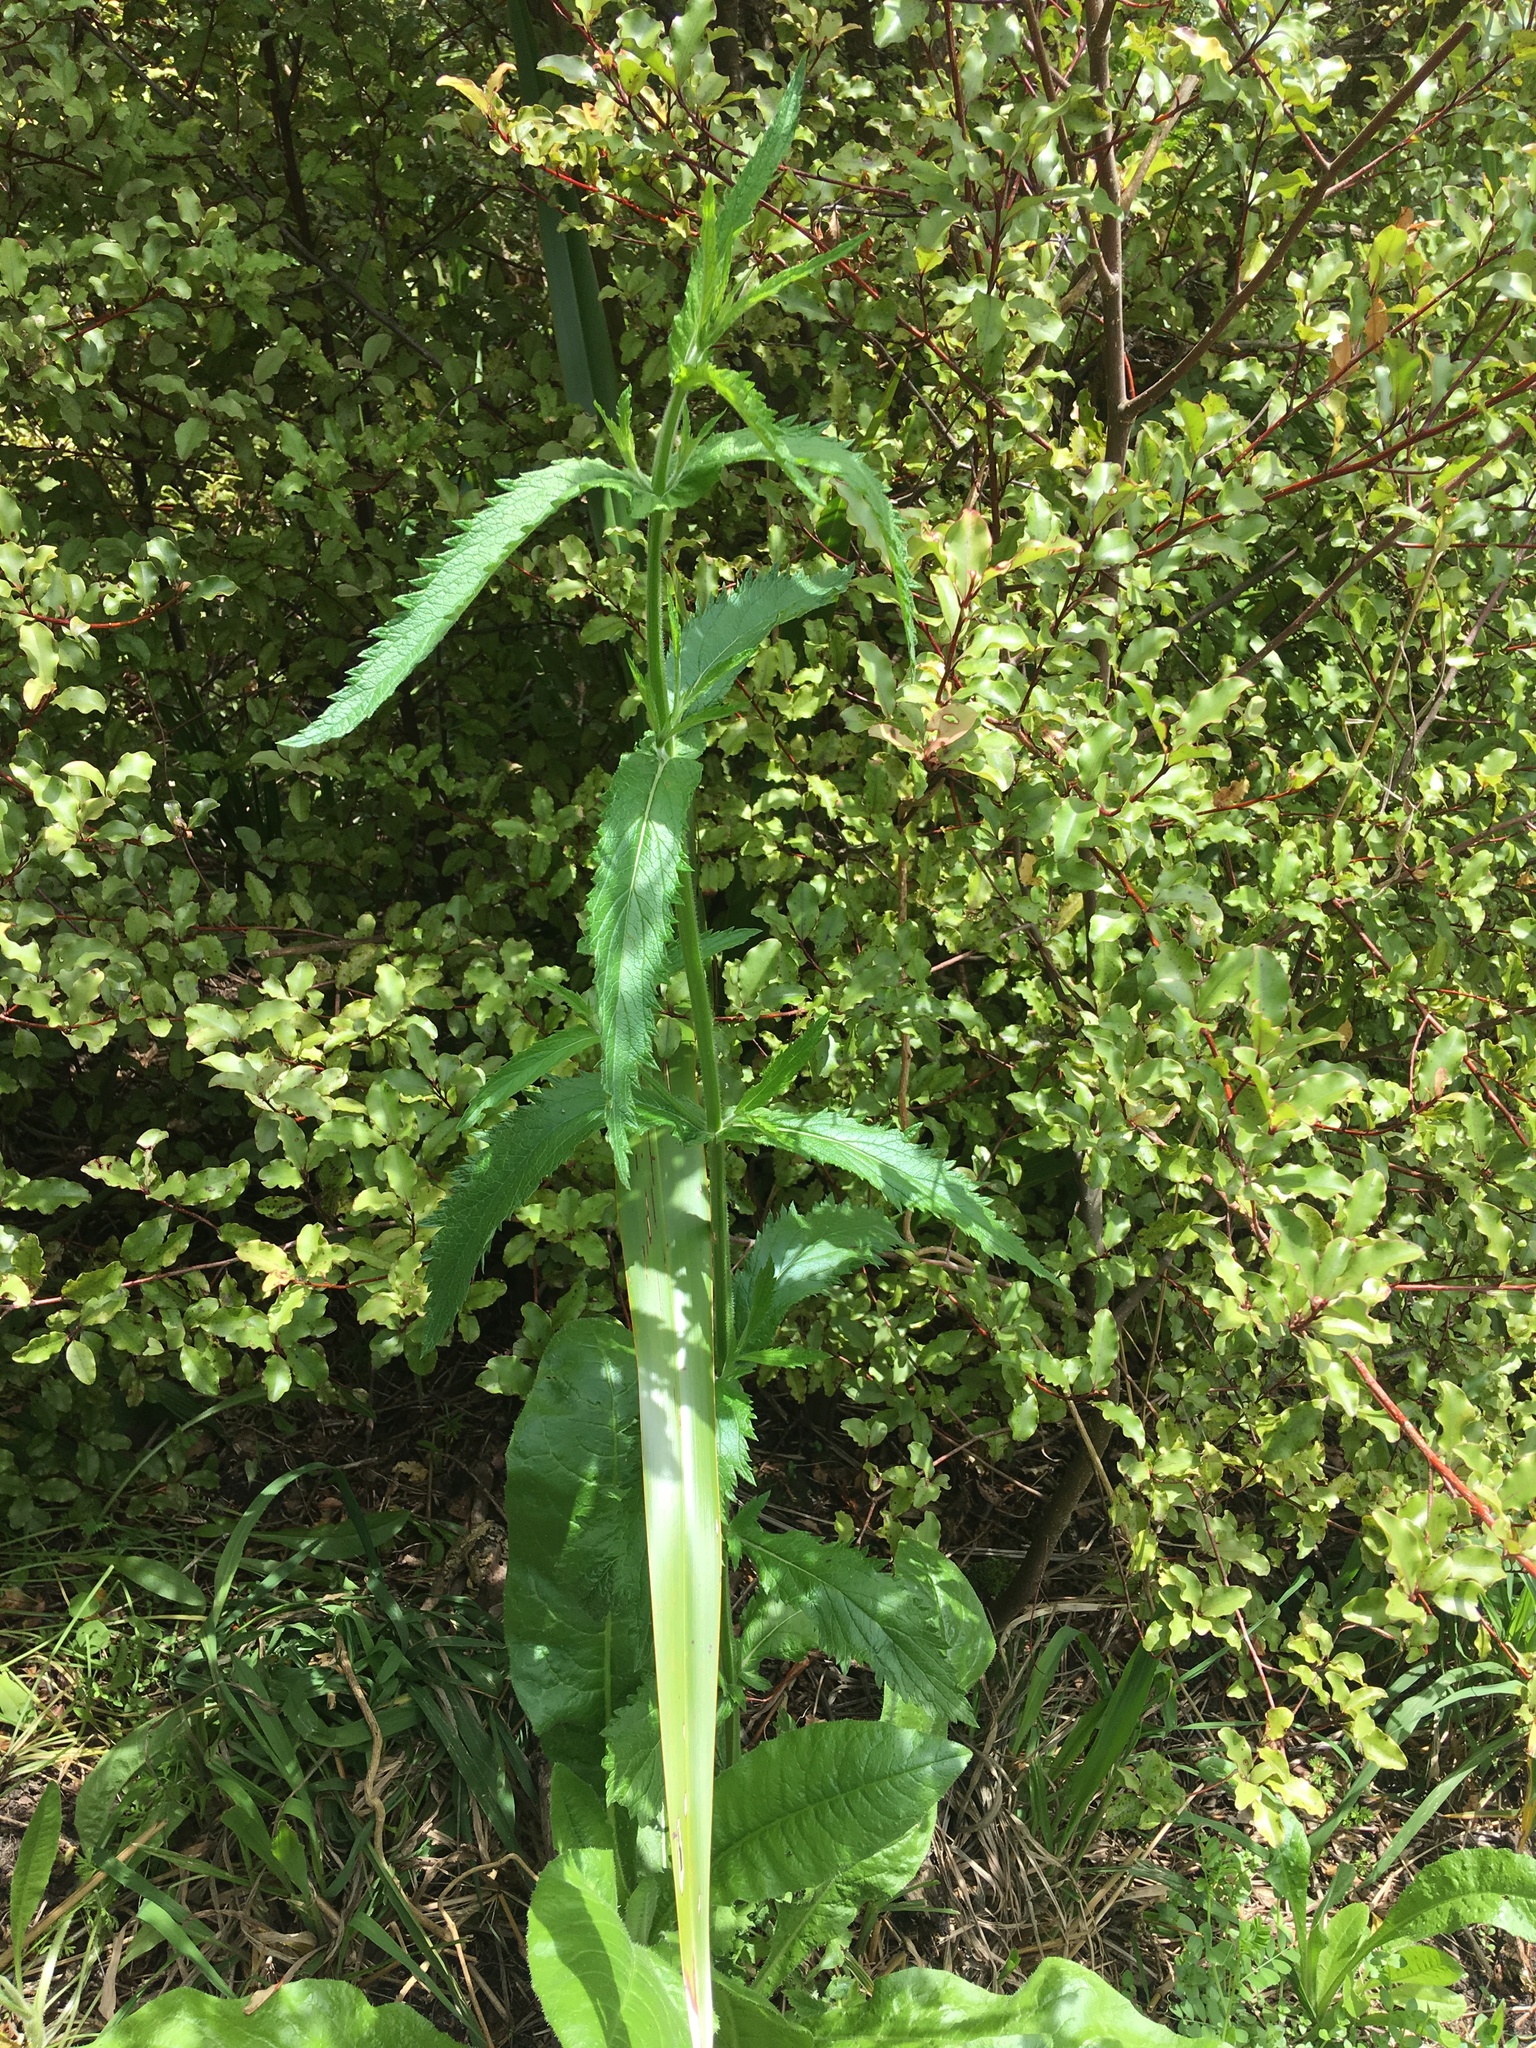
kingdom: Plantae
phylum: Tracheophyta
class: Magnoliopsida
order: Lamiales
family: Verbenaceae
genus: Verbena
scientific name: Verbena incompta
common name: Purpletop vervain
